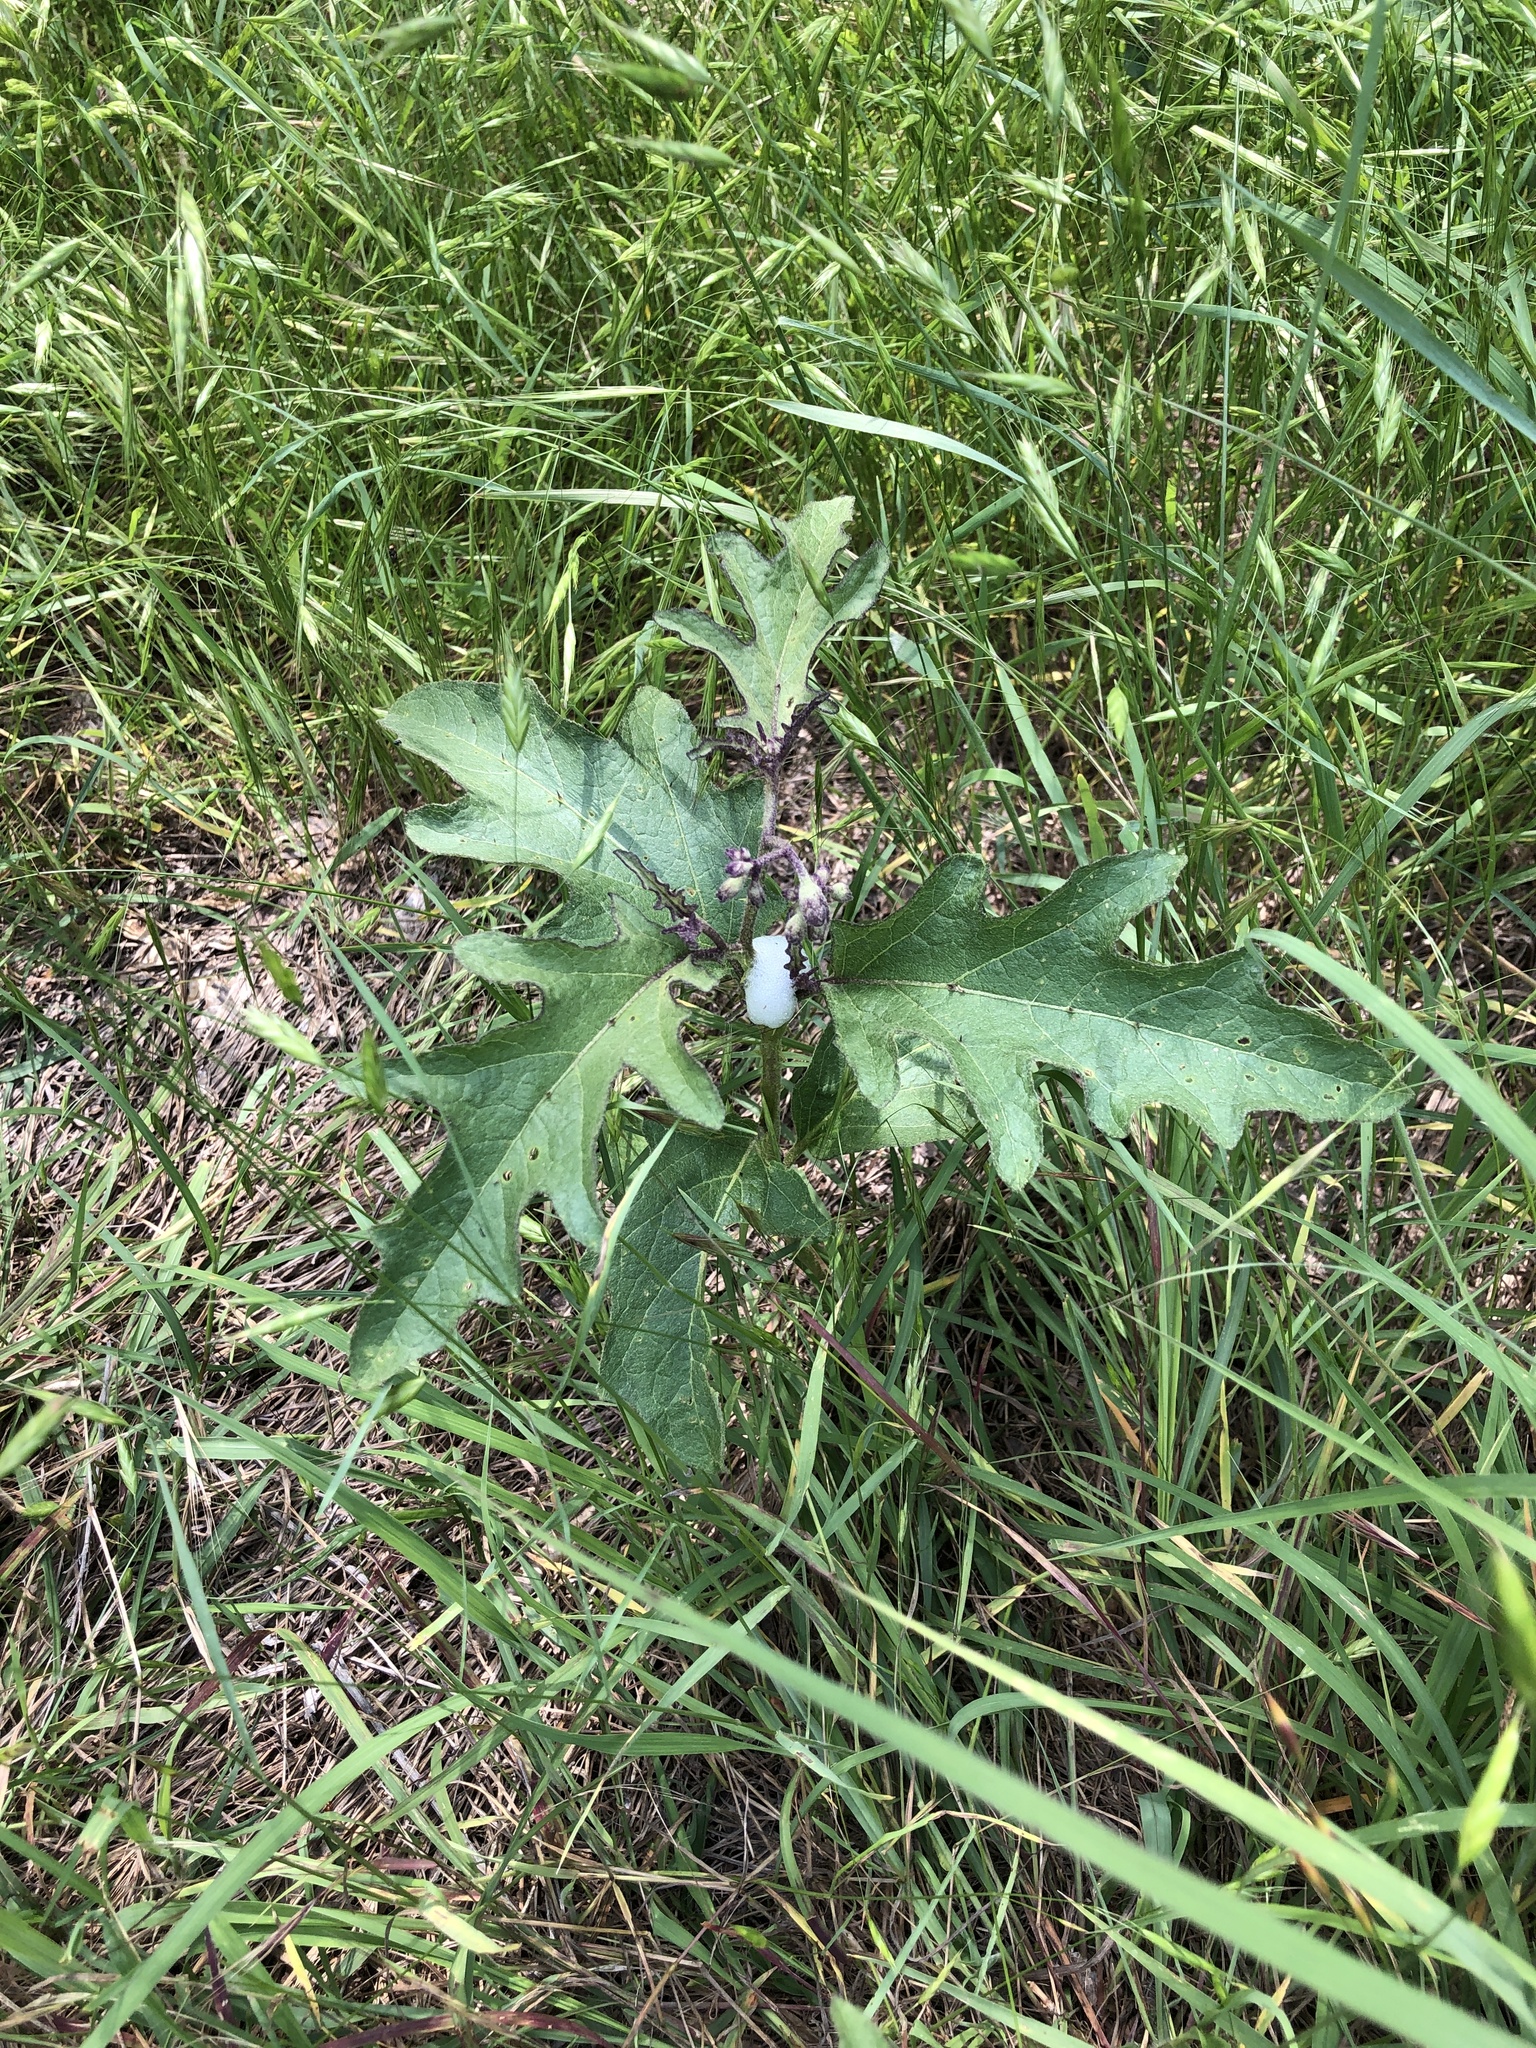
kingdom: Plantae
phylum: Tracheophyta
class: Magnoliopsida
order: Solanales
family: Solanaceae
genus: Solanum
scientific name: Solanum dimidiatum
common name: Carolina horse-nettle
